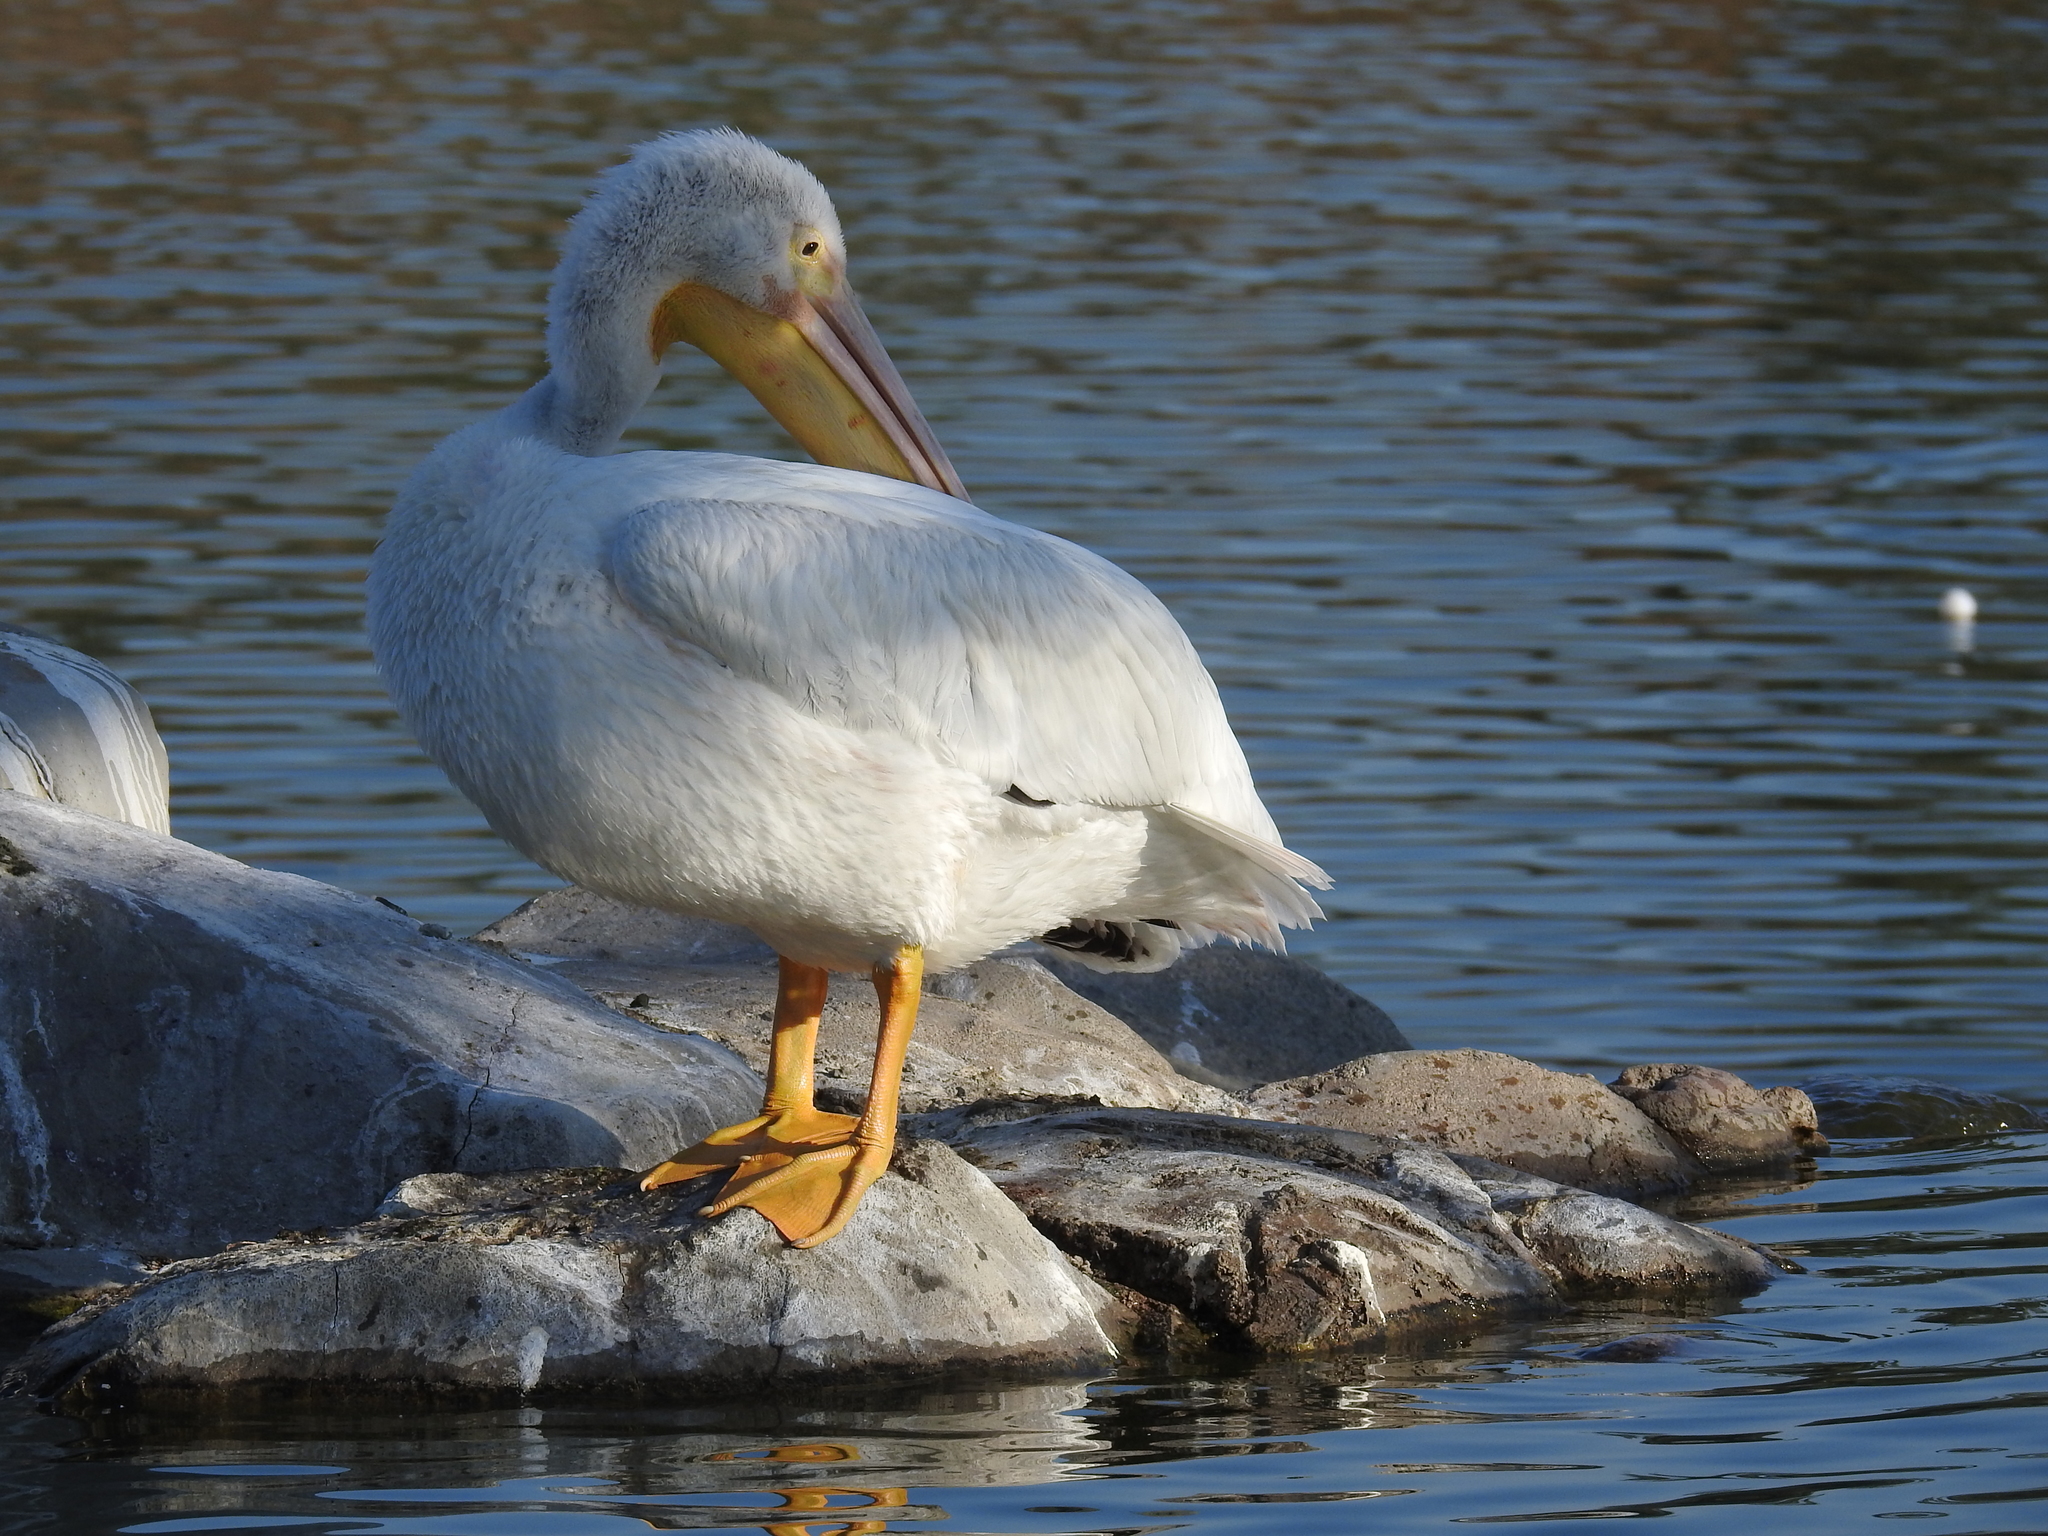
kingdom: Animalia
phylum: Chordata
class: Aves
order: Pelecaniformes
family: Pelecanidae
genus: Pelecanus
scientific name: Pelecanus erythrorhynchos
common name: American white pelican
